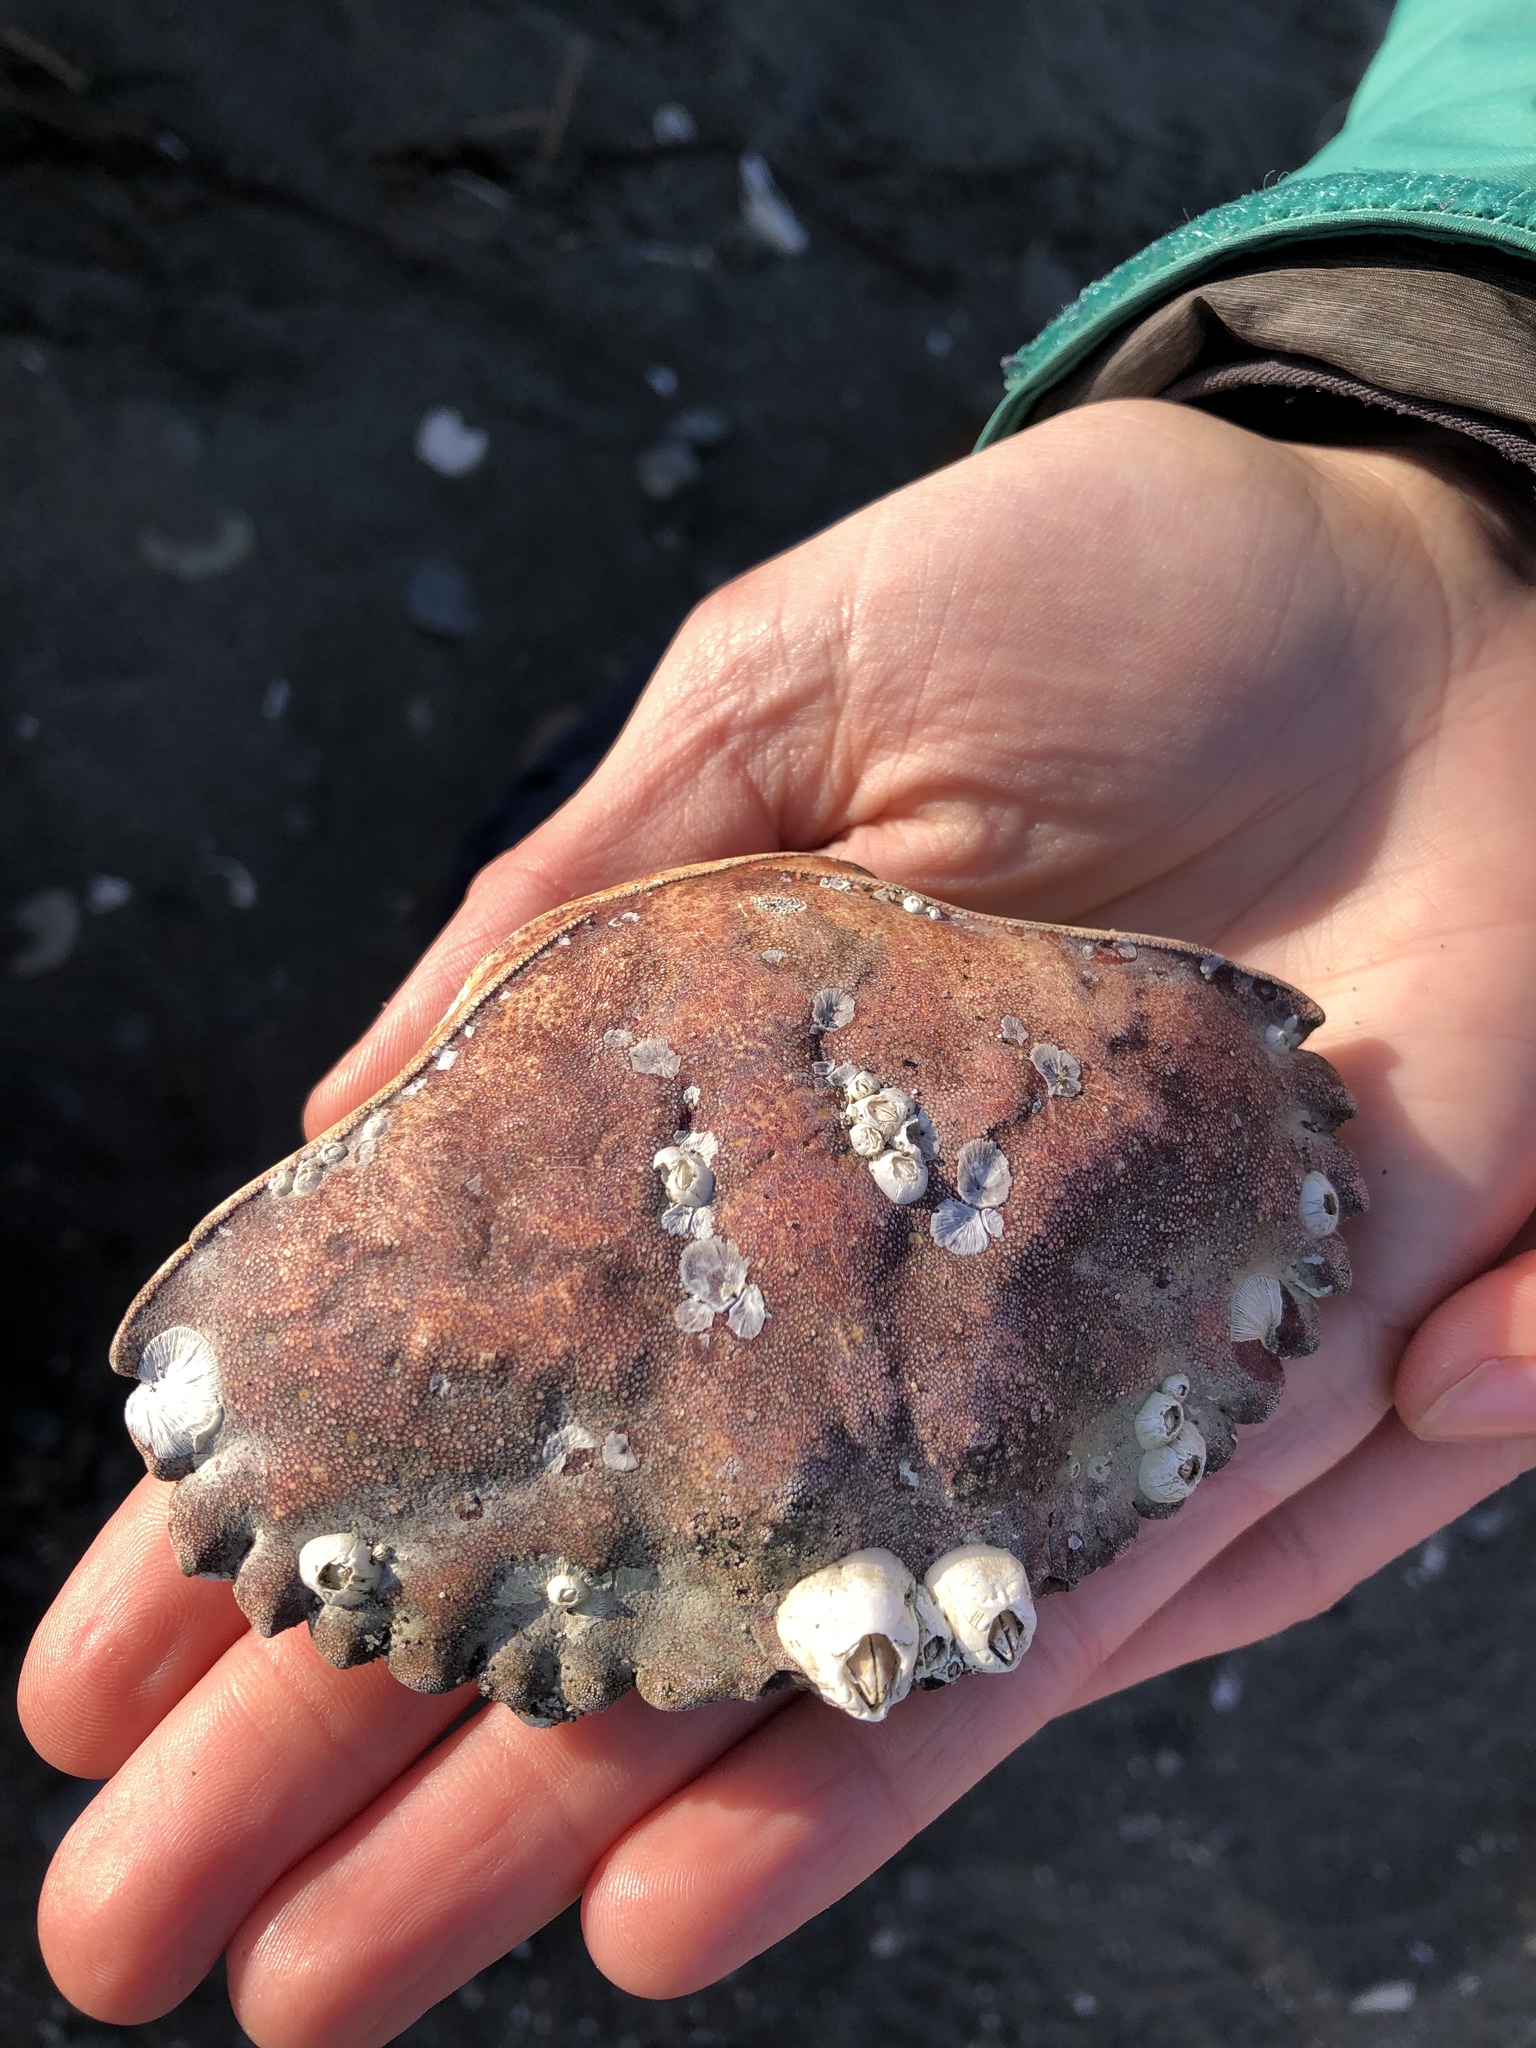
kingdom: Animalia
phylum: Arthropoda
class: Malacostraca
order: Decapoda
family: Cancridae
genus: Cancer
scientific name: Cancer productus
